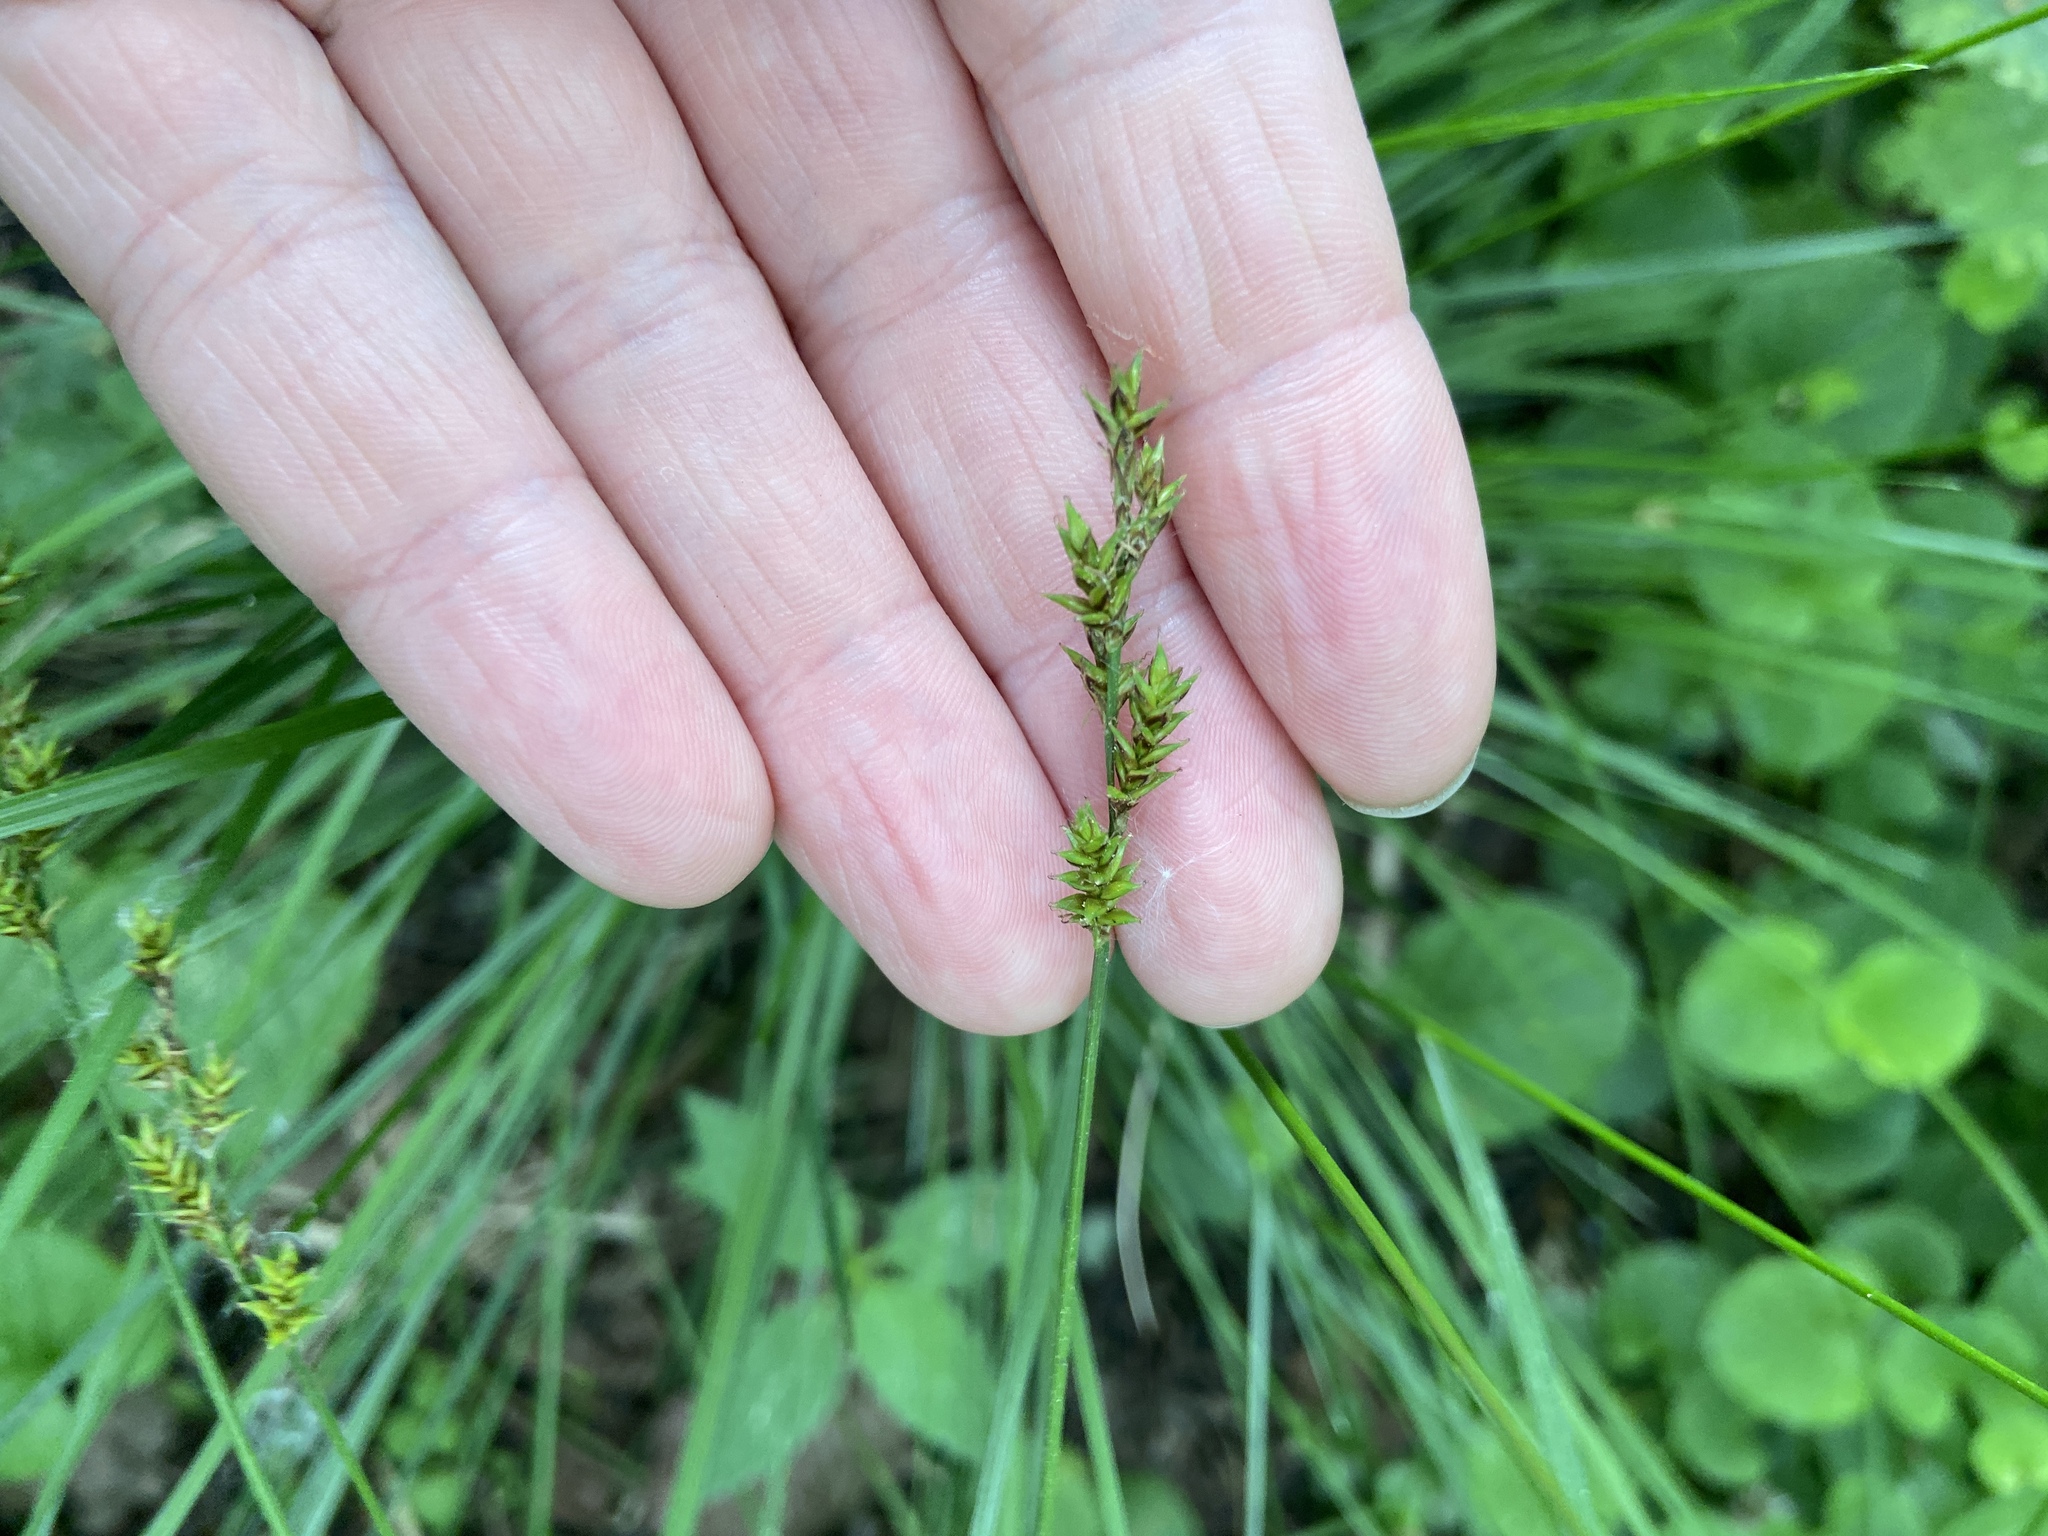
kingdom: Plantae
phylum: Tracheophyta
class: Liliopsida
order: Poales
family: Cyperaceae
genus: Carex
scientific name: Carex elongata
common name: Elongated sedge
